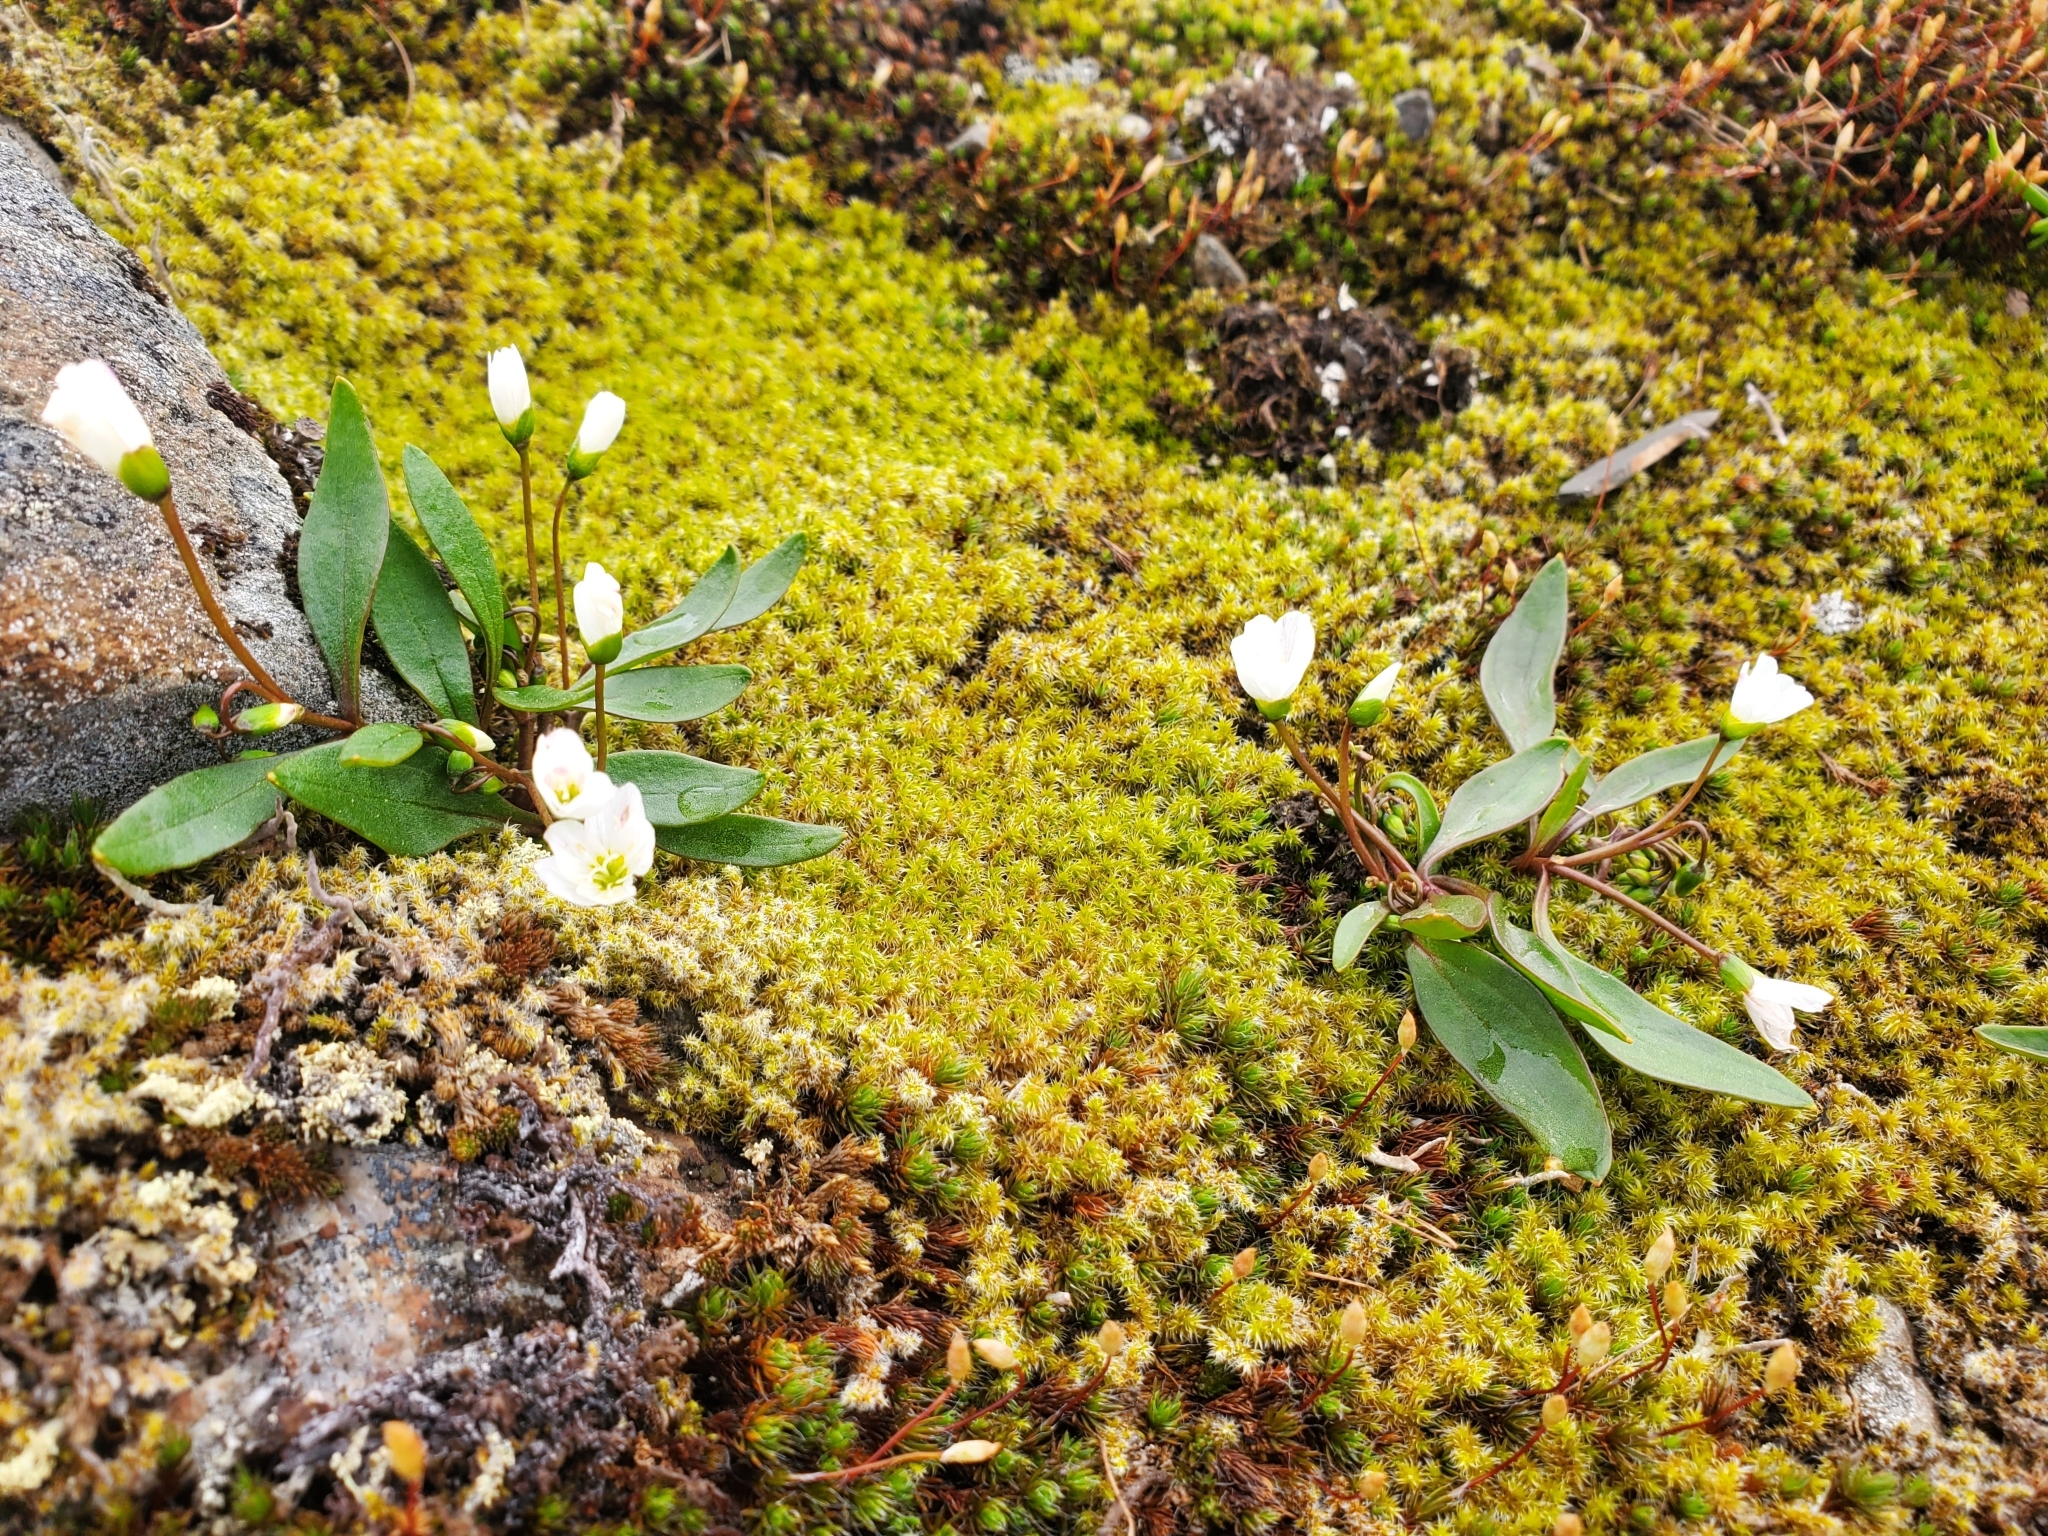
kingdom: Plantae
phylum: Tracheophyta
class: Magnoliopsida
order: Caryophyllales
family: Montiaceae
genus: Claytonia
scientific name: Claytonia multiscapa
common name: Lanceleaf springbeauty
